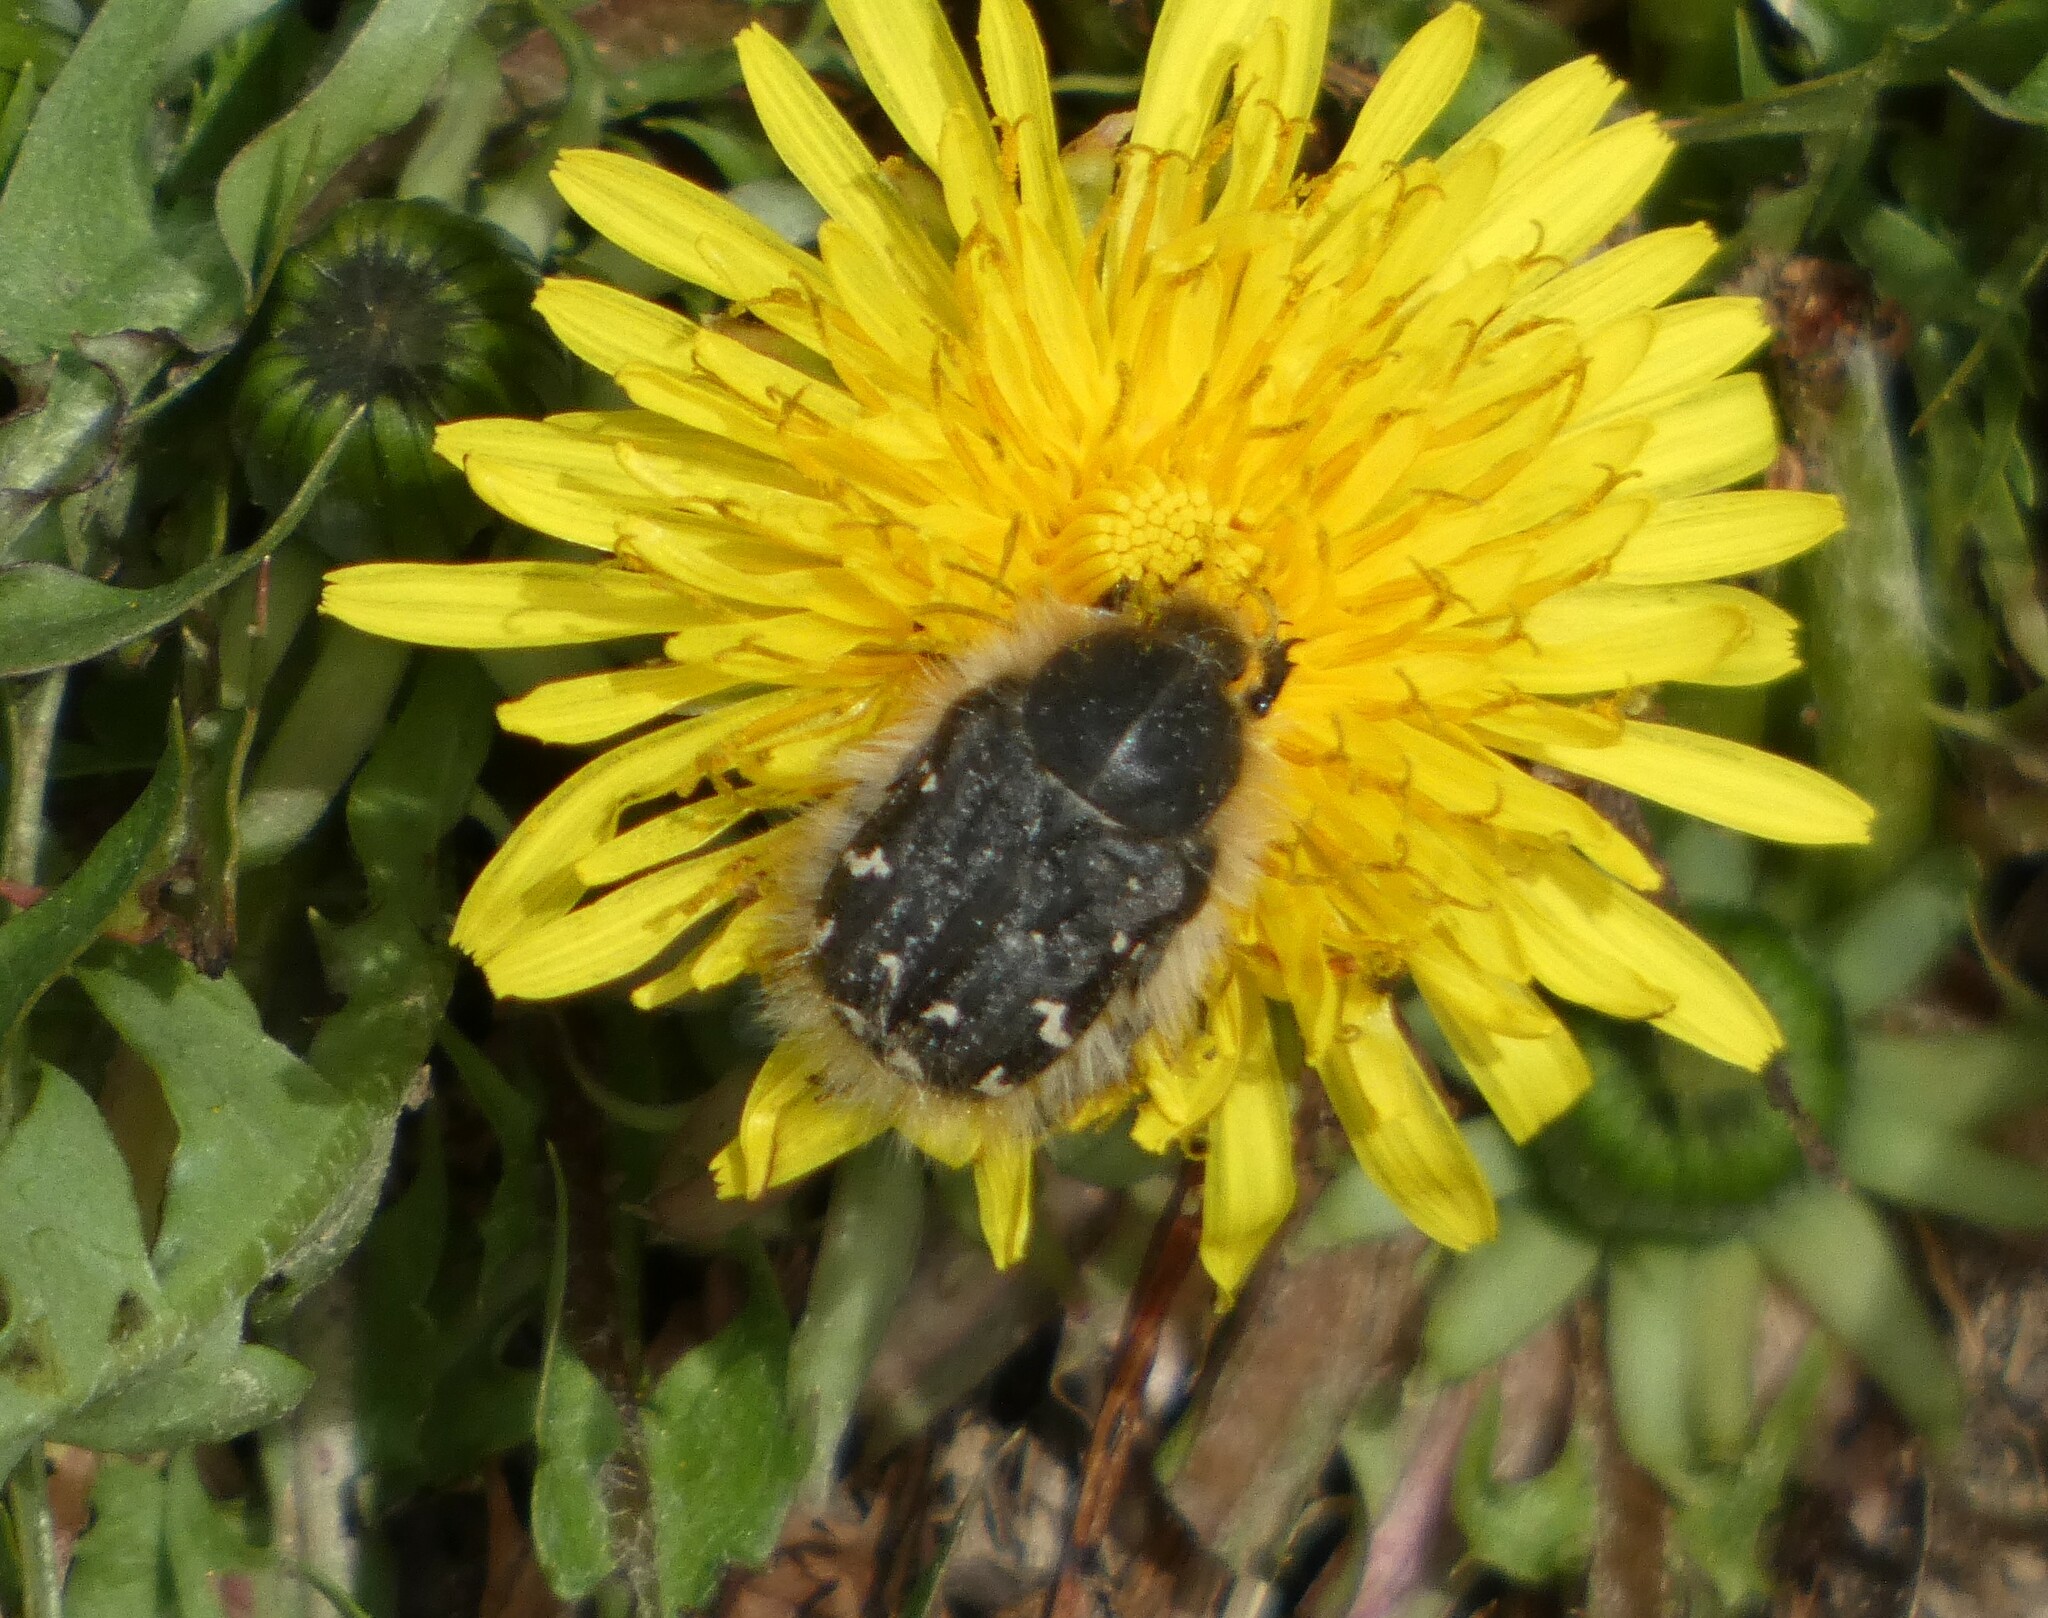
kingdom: Animalia
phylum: Arthropoda
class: Insecta
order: Coleoptera
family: Scarabaeidae
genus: Tropinota
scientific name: Tropinota hirta
